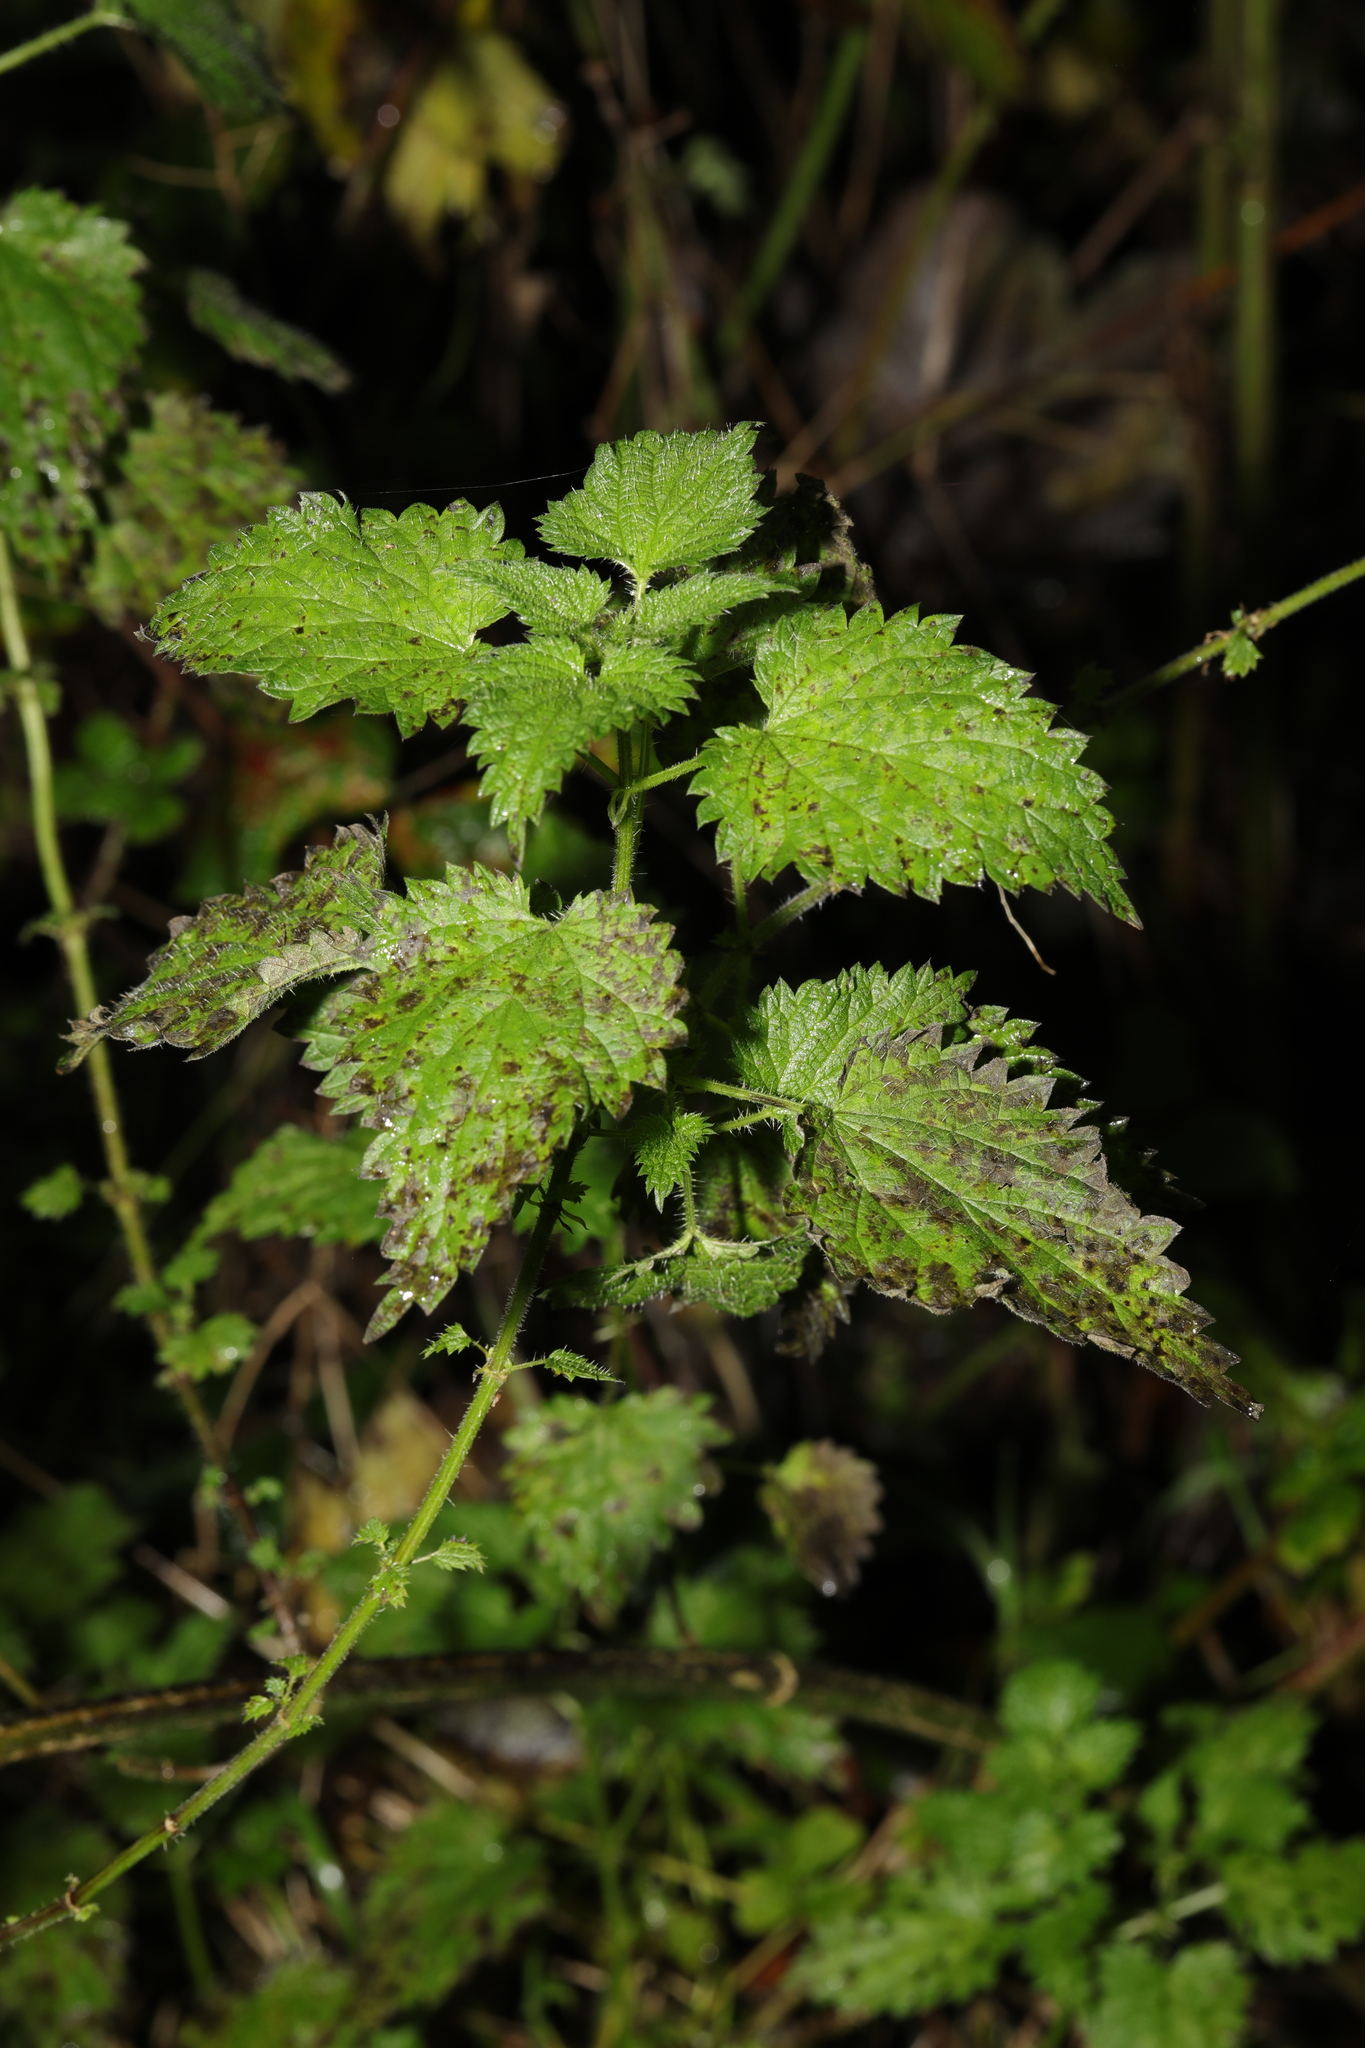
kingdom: Plantae
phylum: Tracheophyta
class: Magnoliopsida
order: Rosales
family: Urticaceae
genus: Urtica
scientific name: Urtica dioica
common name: Common nettle
